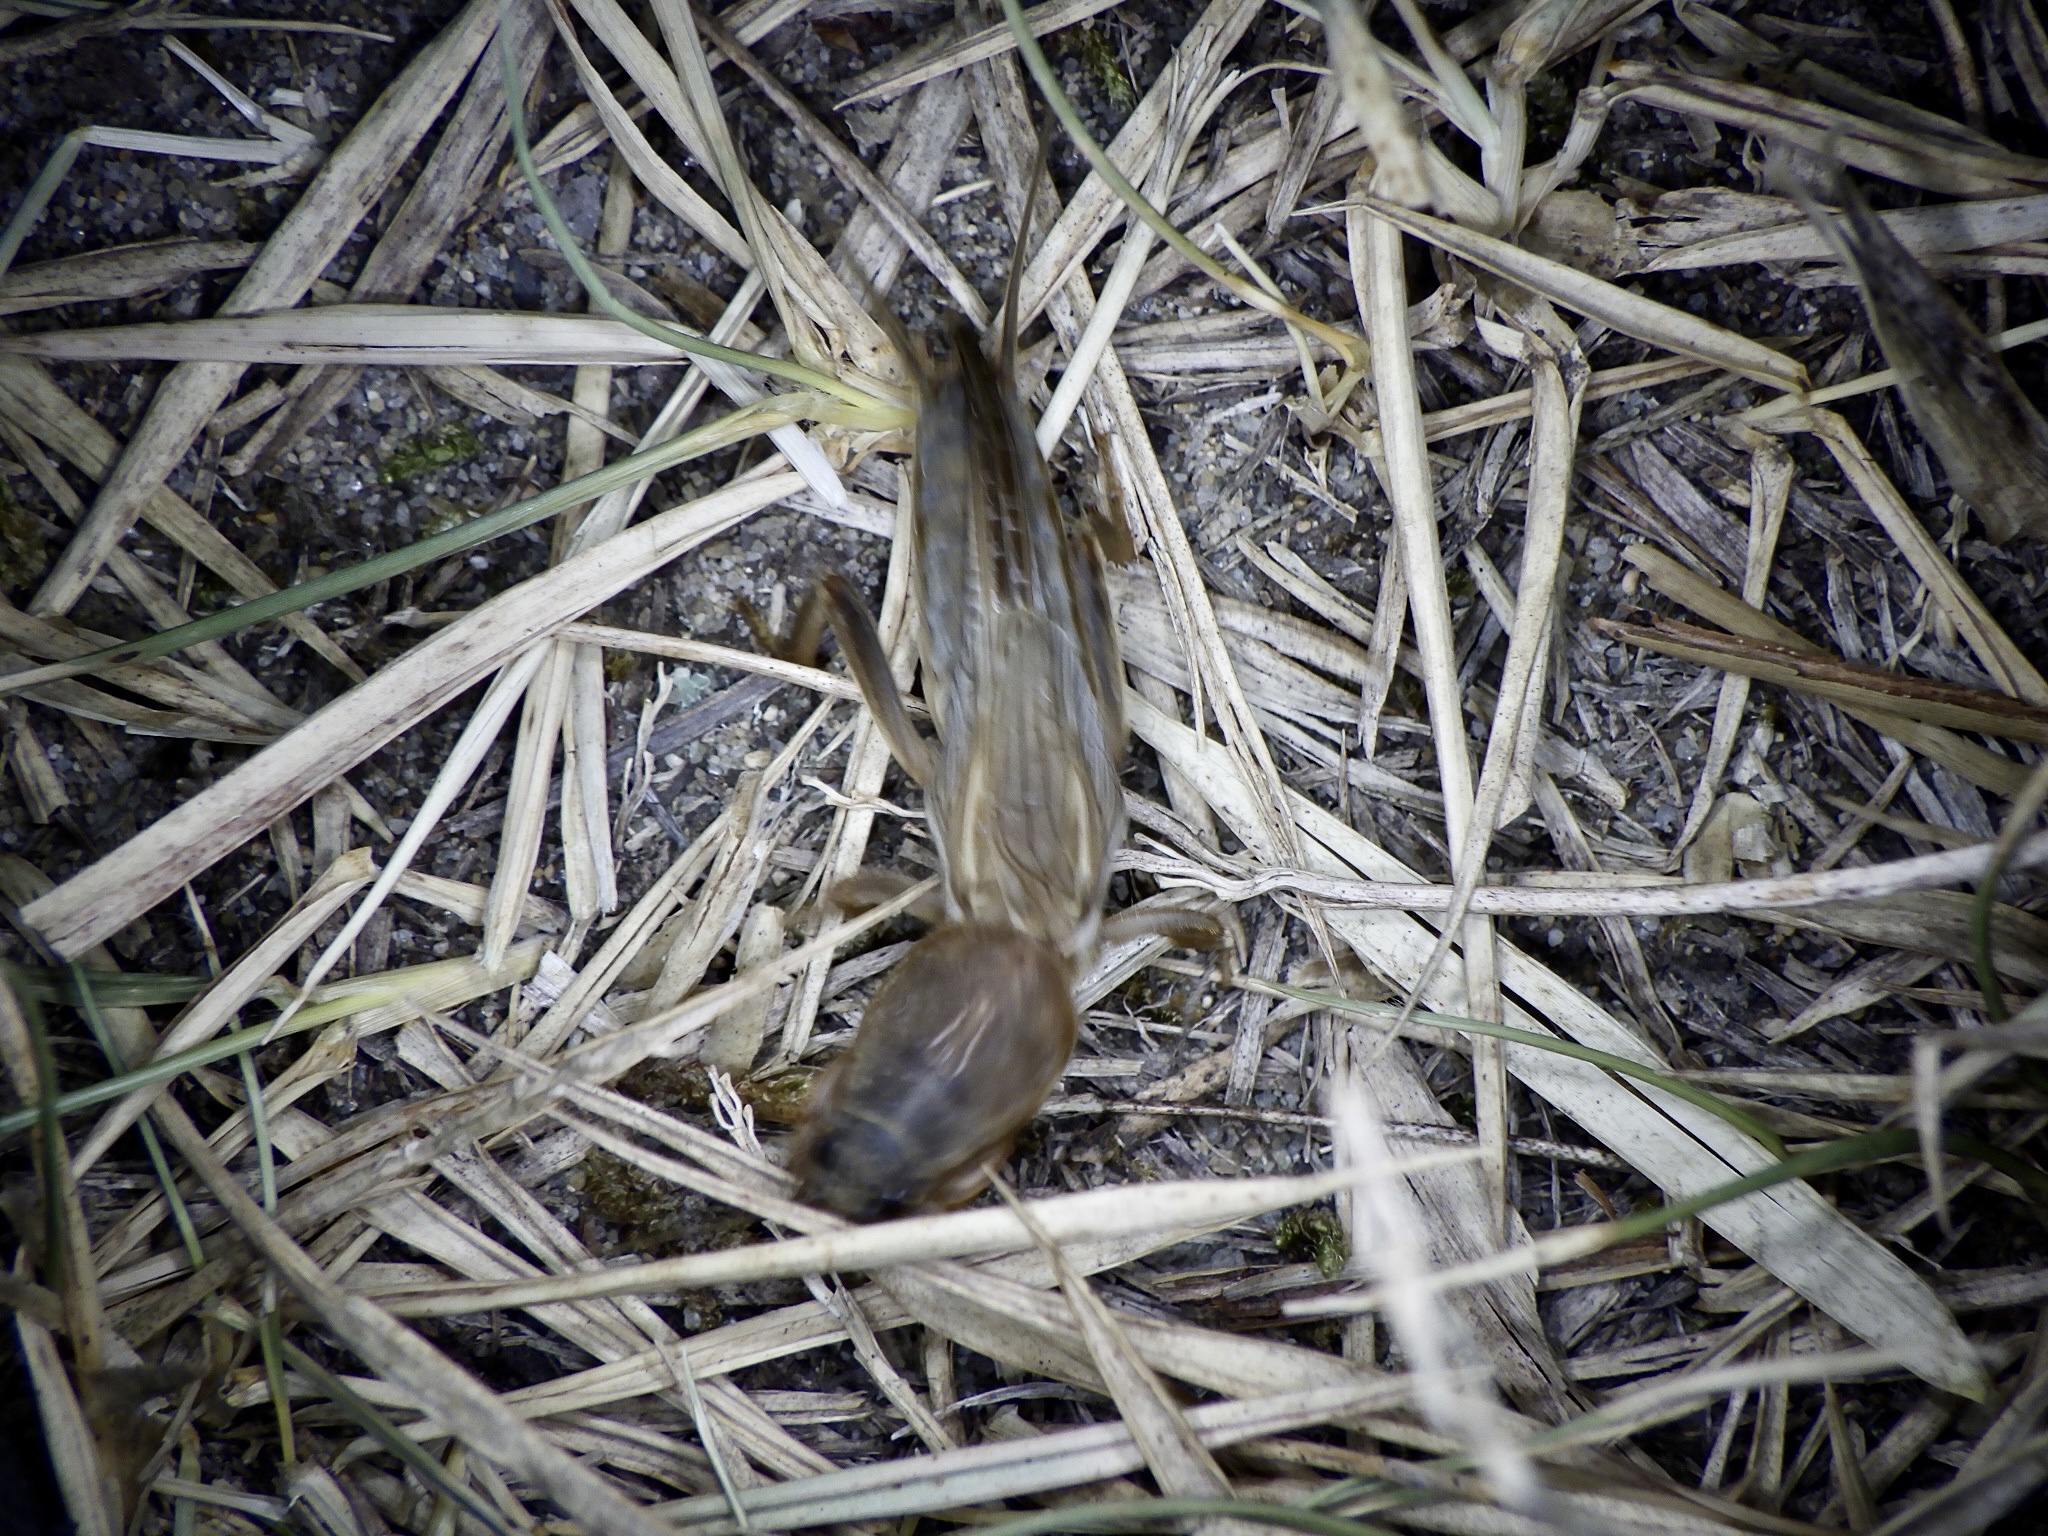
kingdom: Animalia
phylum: Arthropoda
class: Insecta
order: Orthoptera
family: Gryllotalpidae
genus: Gryllotalpa
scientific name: Gryllotalpa orientalis
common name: Grasshopper
